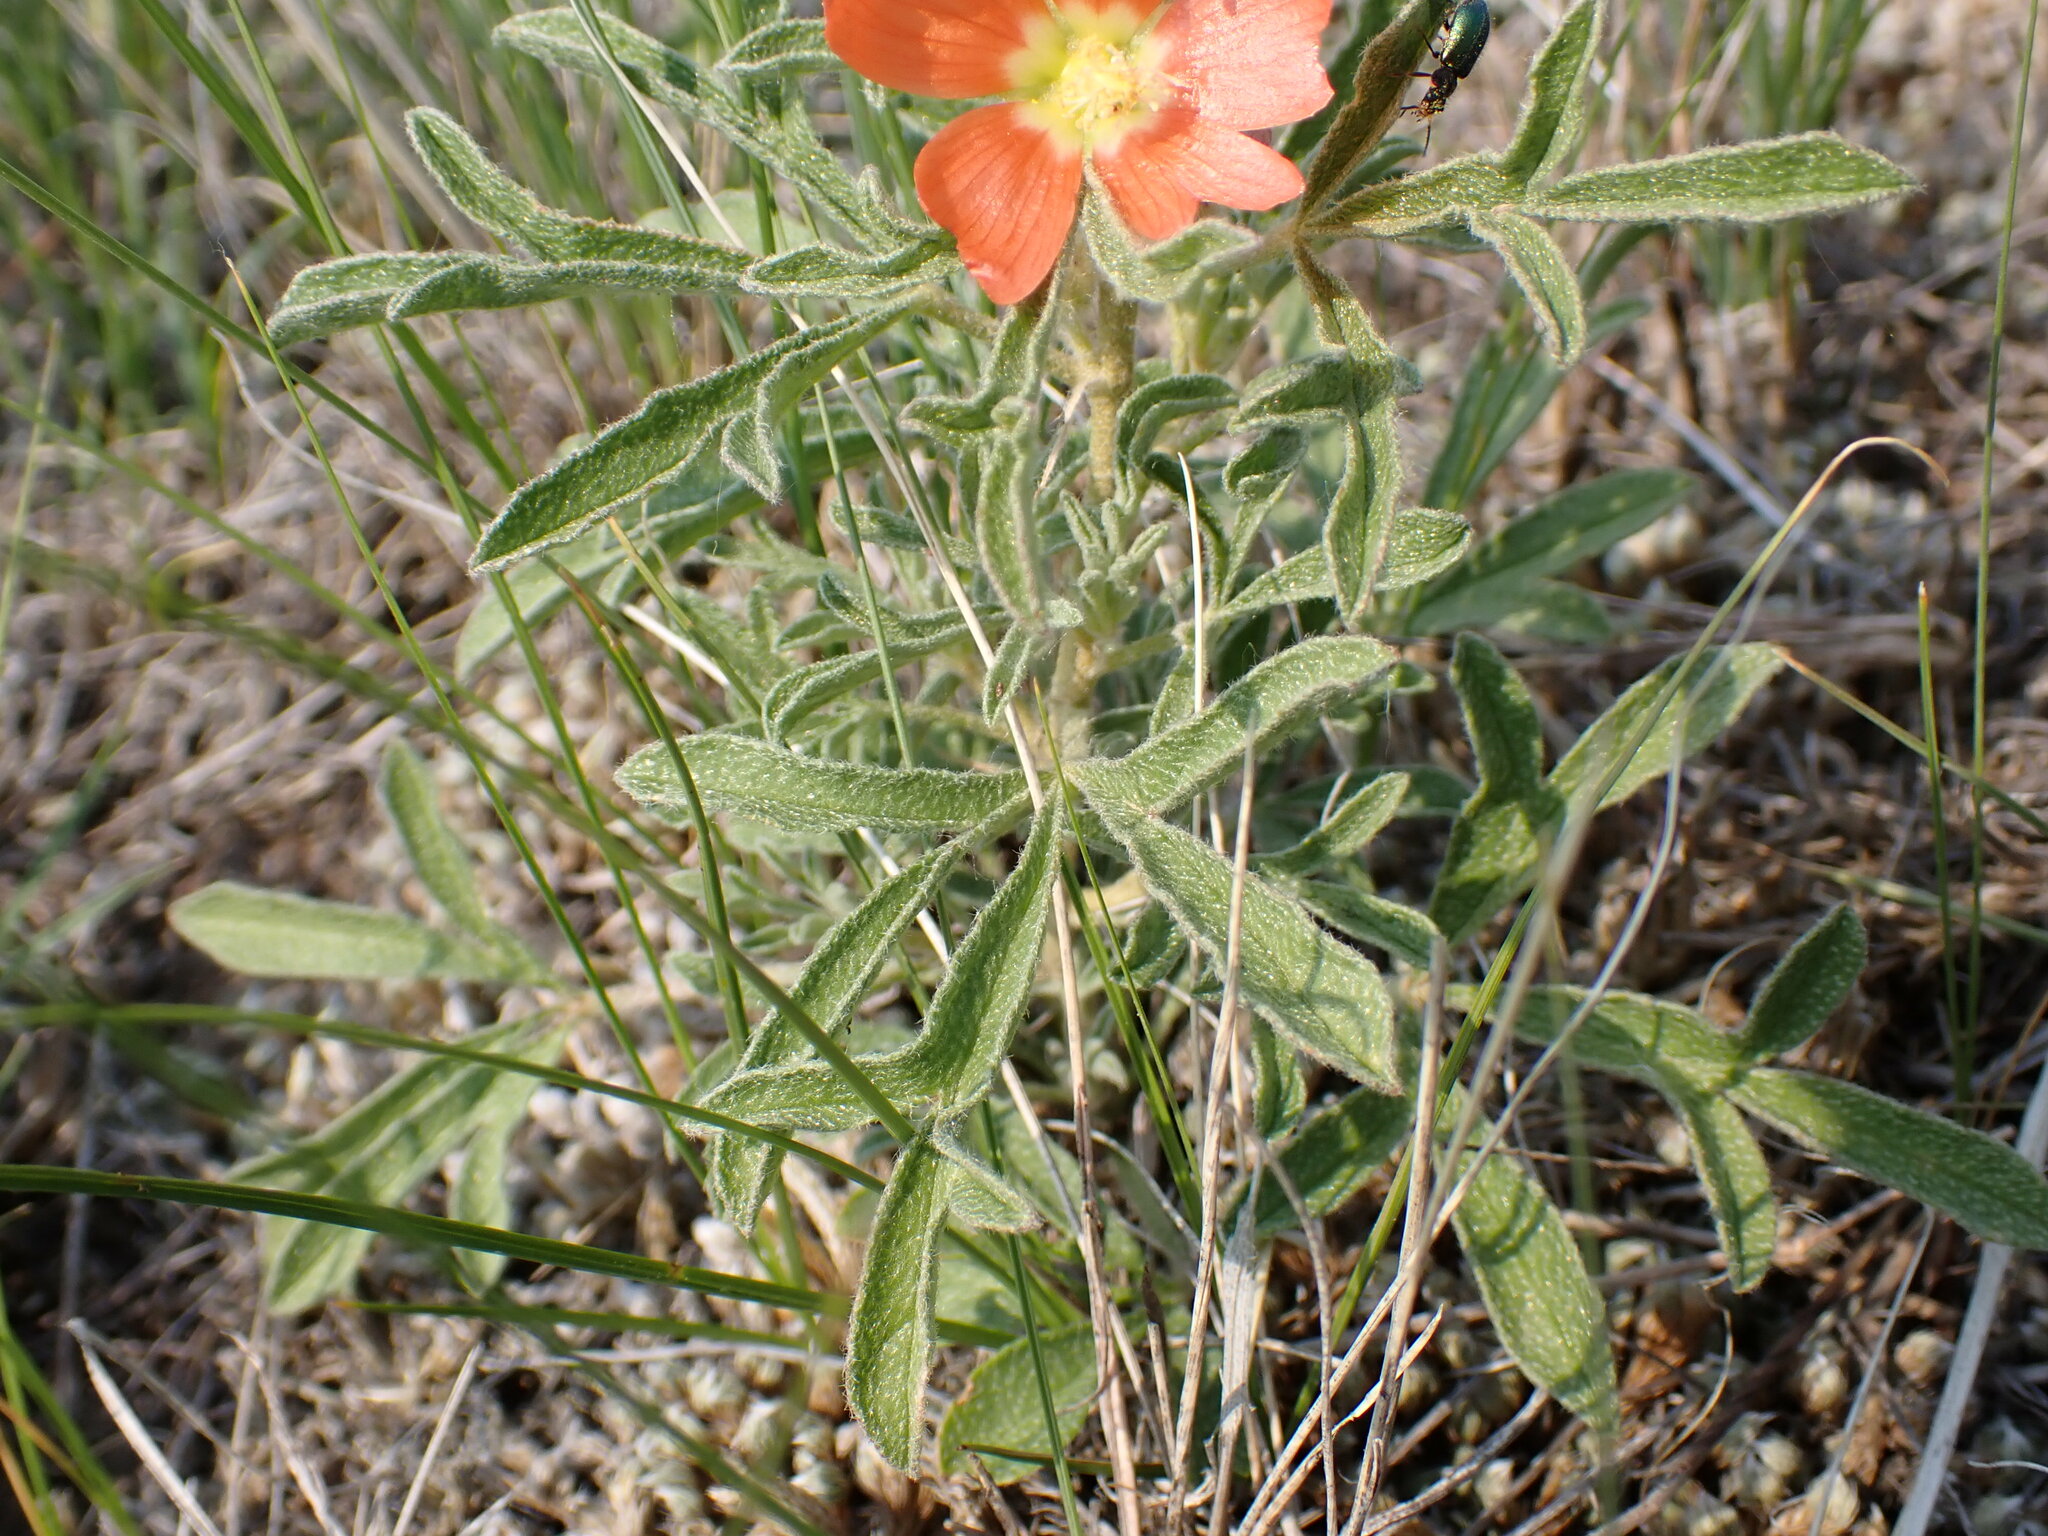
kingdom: Plantae
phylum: Tracheophyta
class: Magnoliopsida
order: Malvales
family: Malvaceae
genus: Sphaeralcea
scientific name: Sphaeralcea coccinea
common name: Moss-rose
